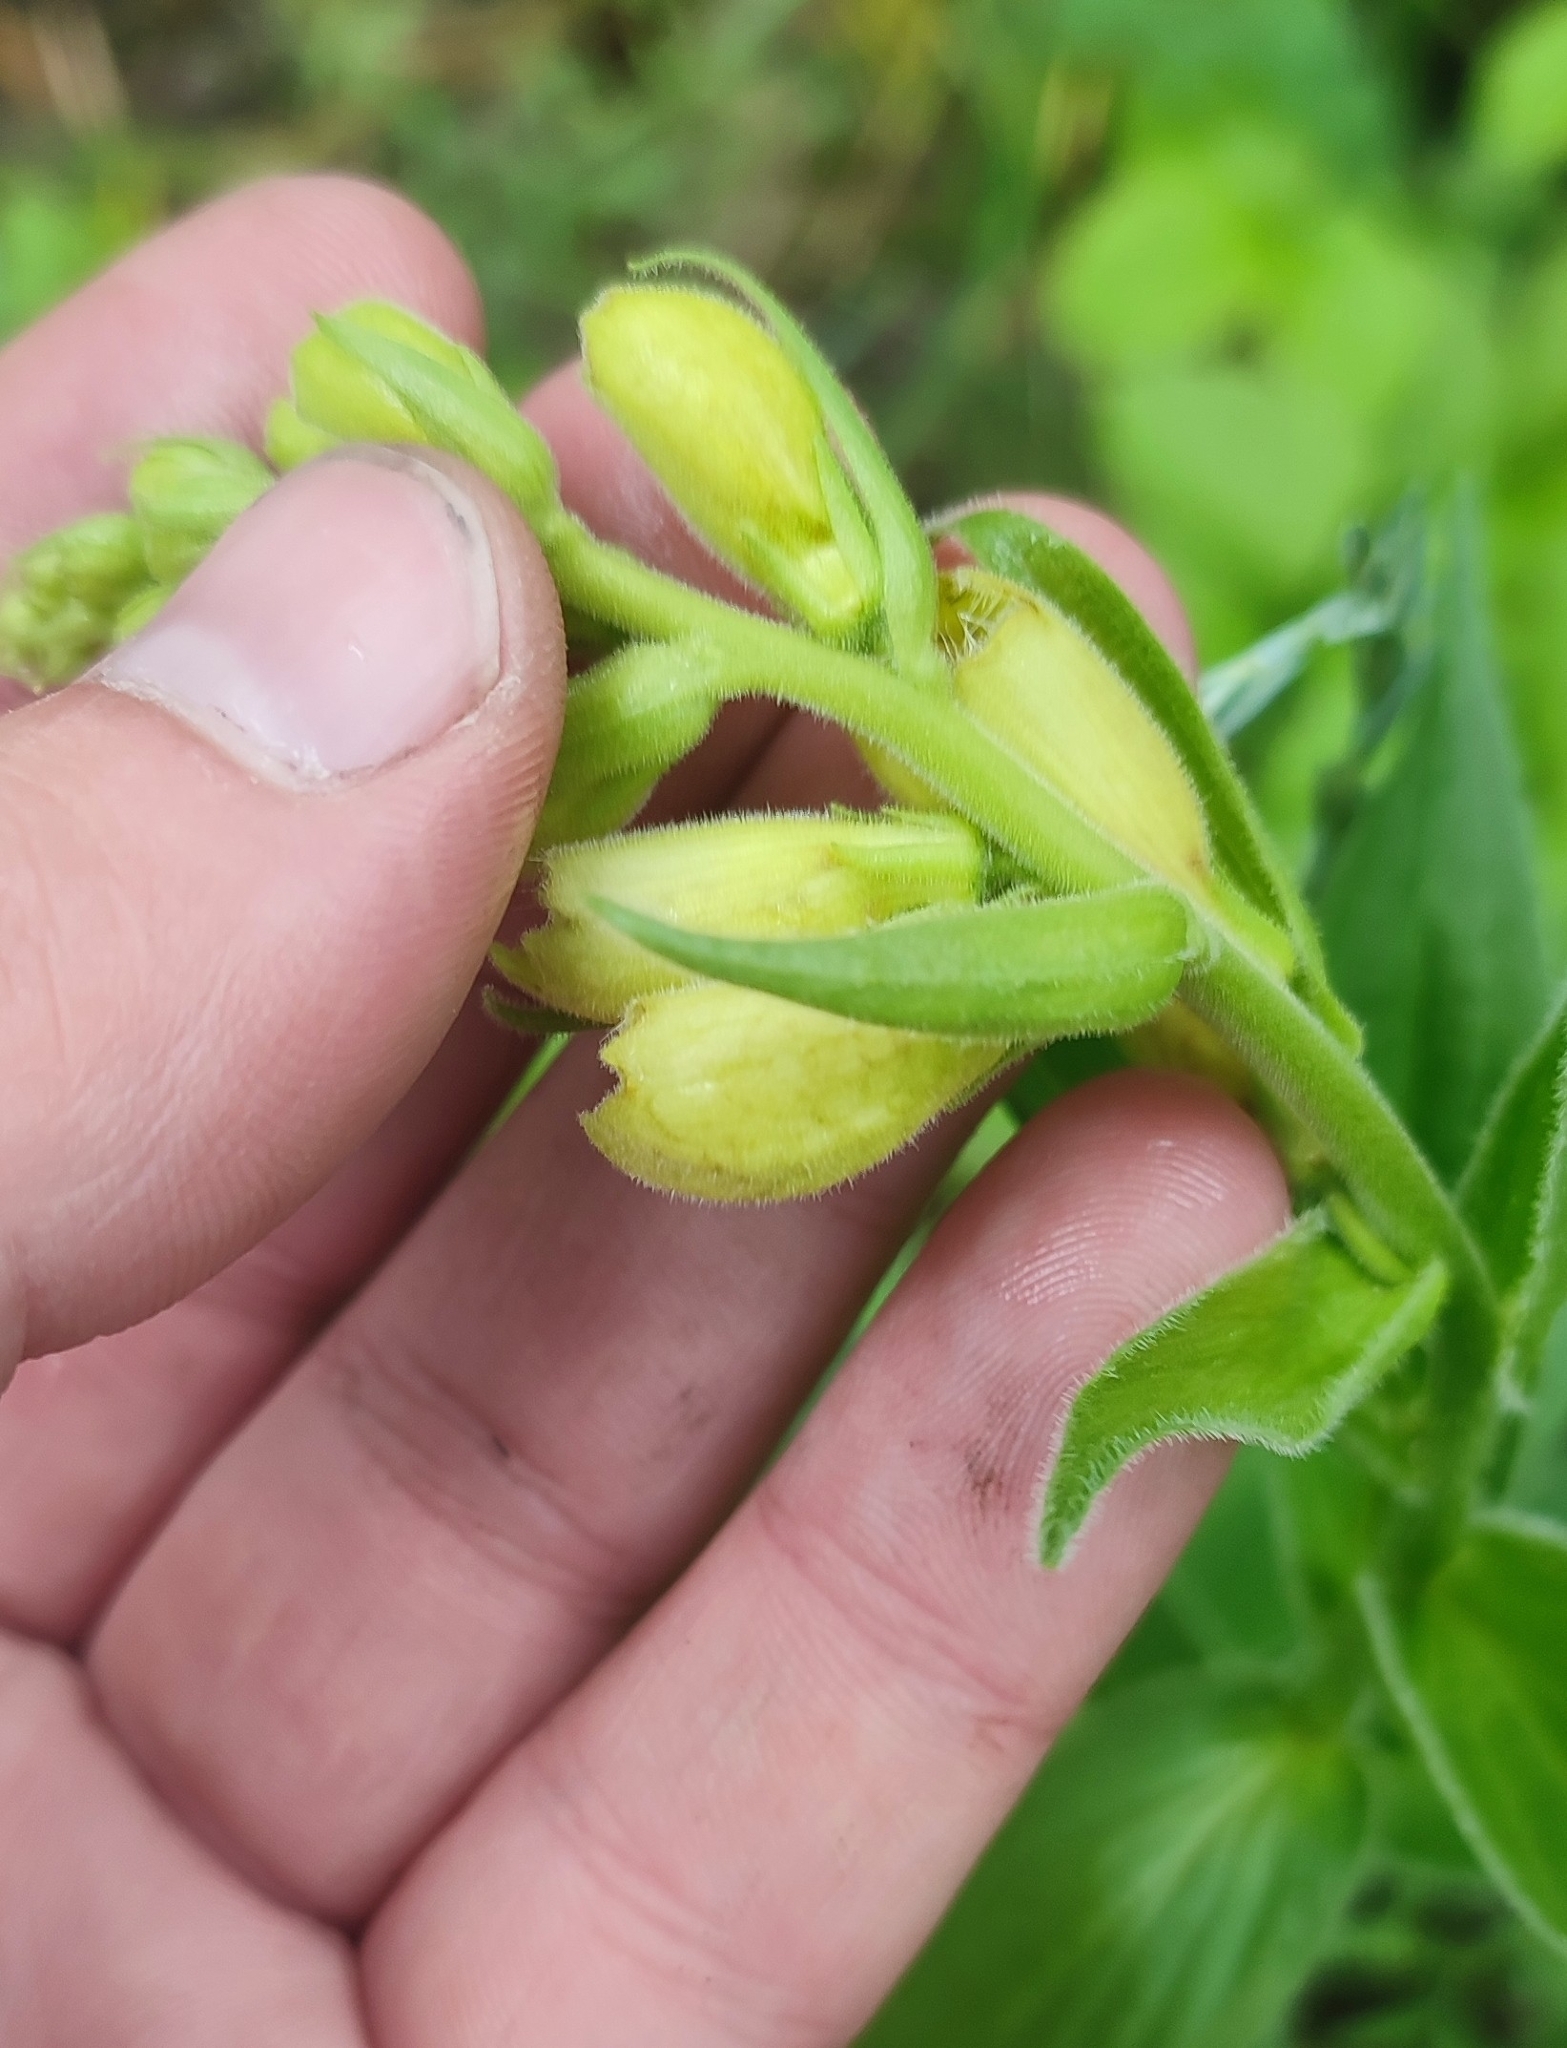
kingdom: Plantae
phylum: Tracheophyta
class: Magnoliopsida
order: Lamiales
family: Plantaginaceae
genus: Digitalis
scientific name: Digitalis grandiflora
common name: Yellow foxglove
